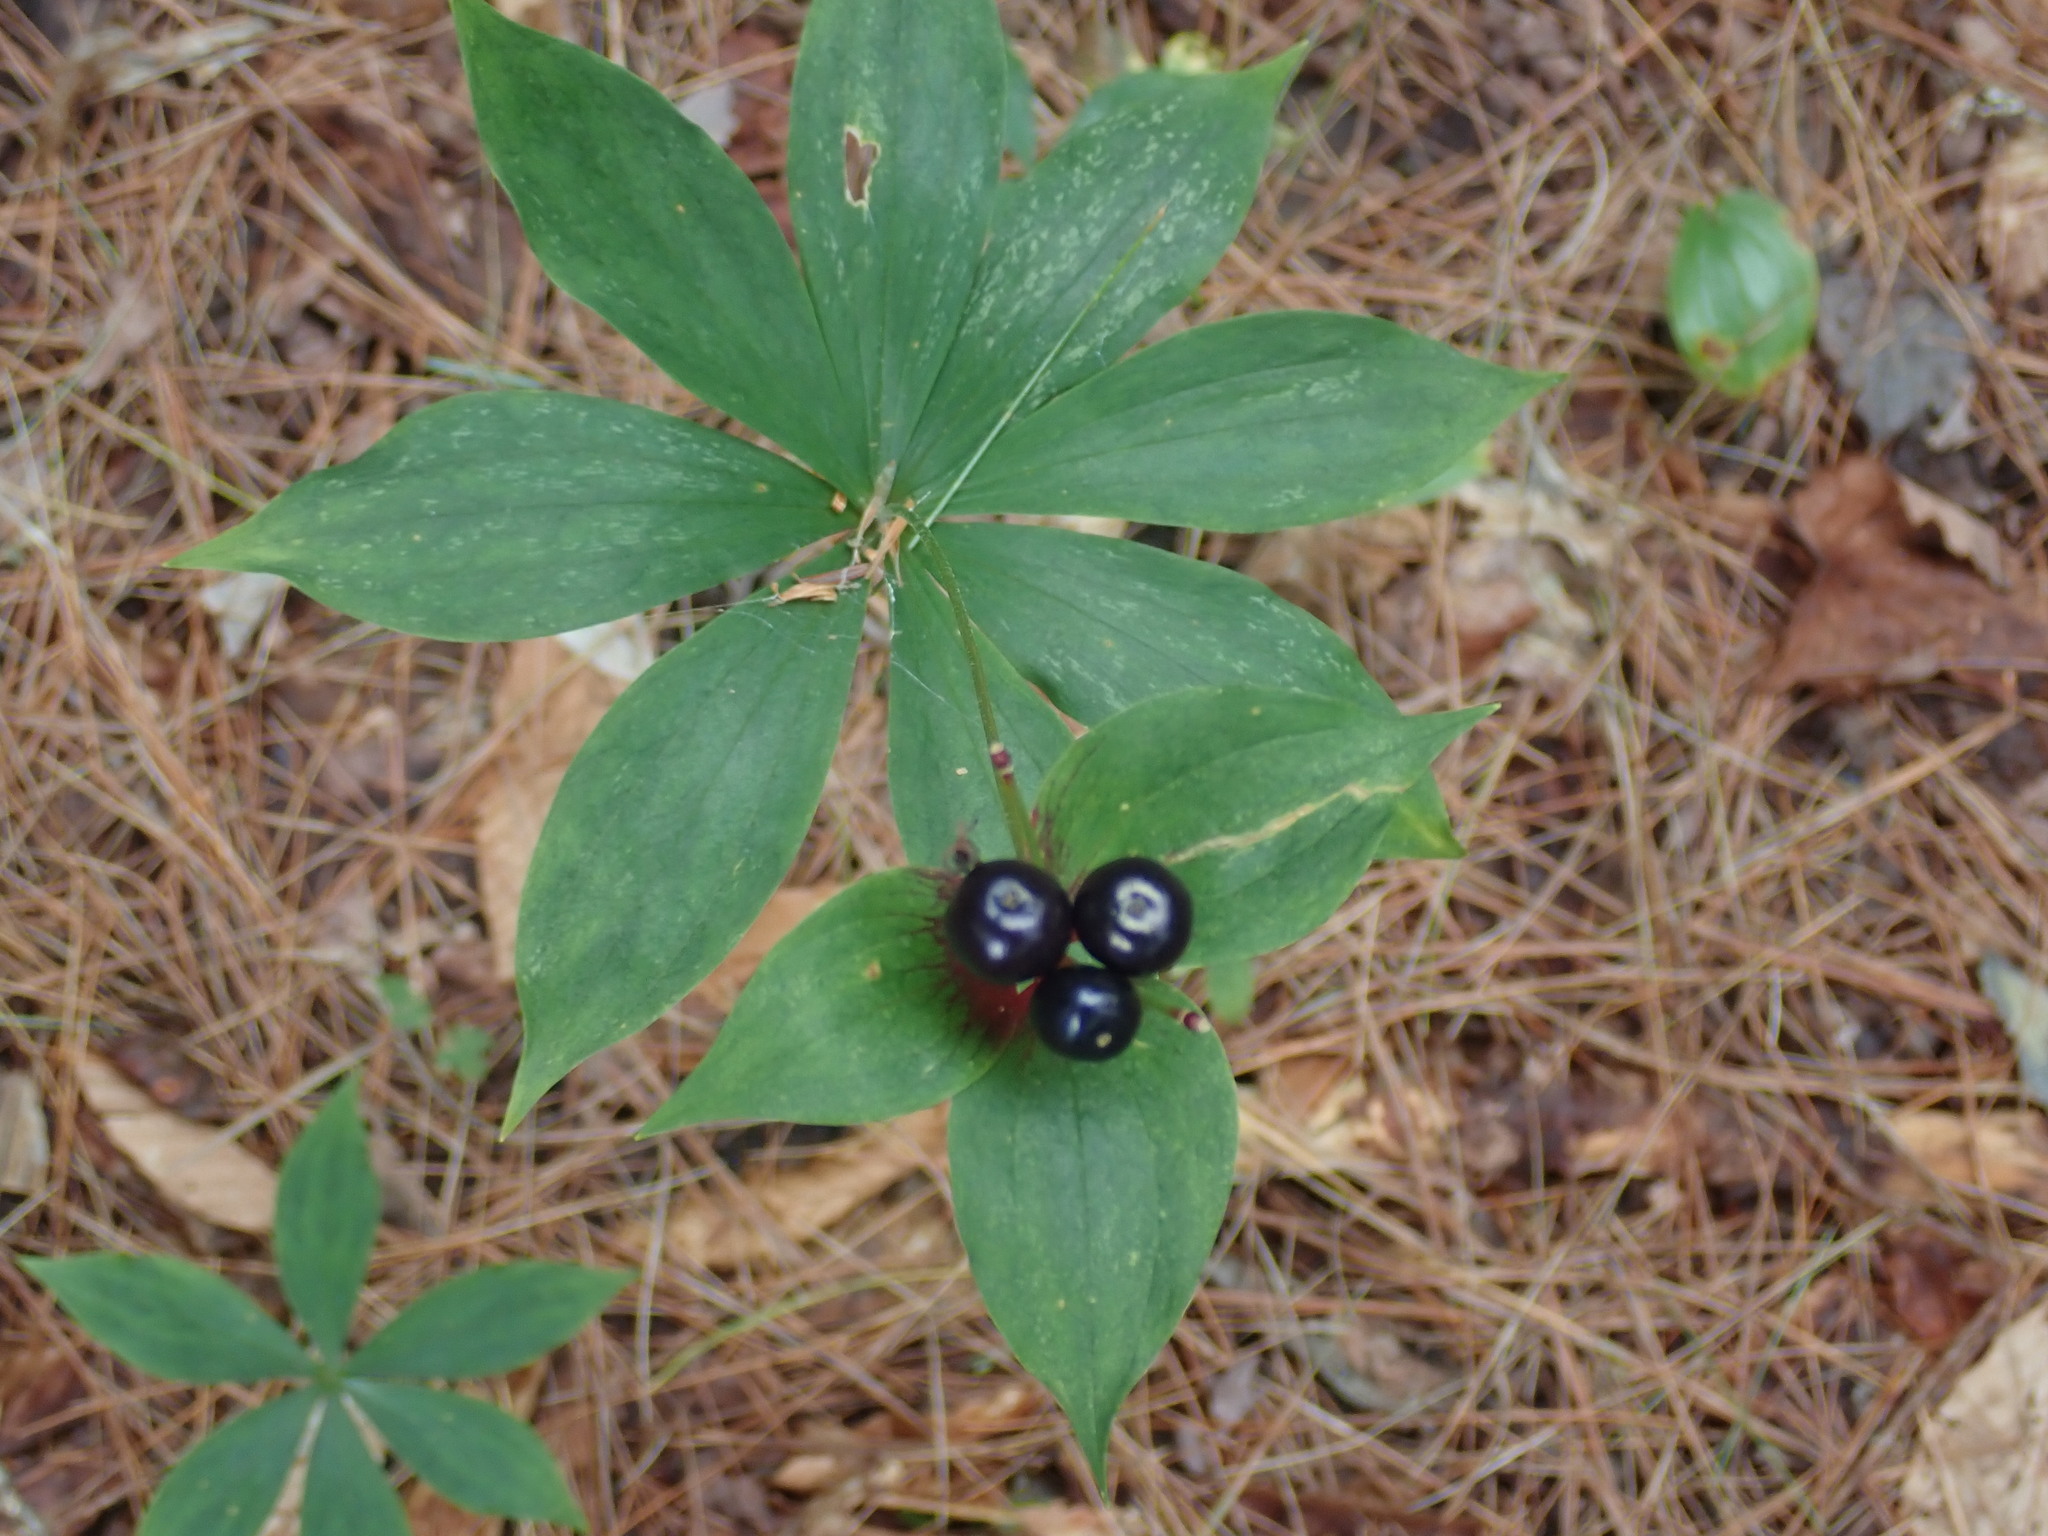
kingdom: Plantae
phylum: Tracheophyta
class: Liliopsida
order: Liliales
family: Liliaceae
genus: Medeola
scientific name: Medeola virginiana
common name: Indian cucumber-root
